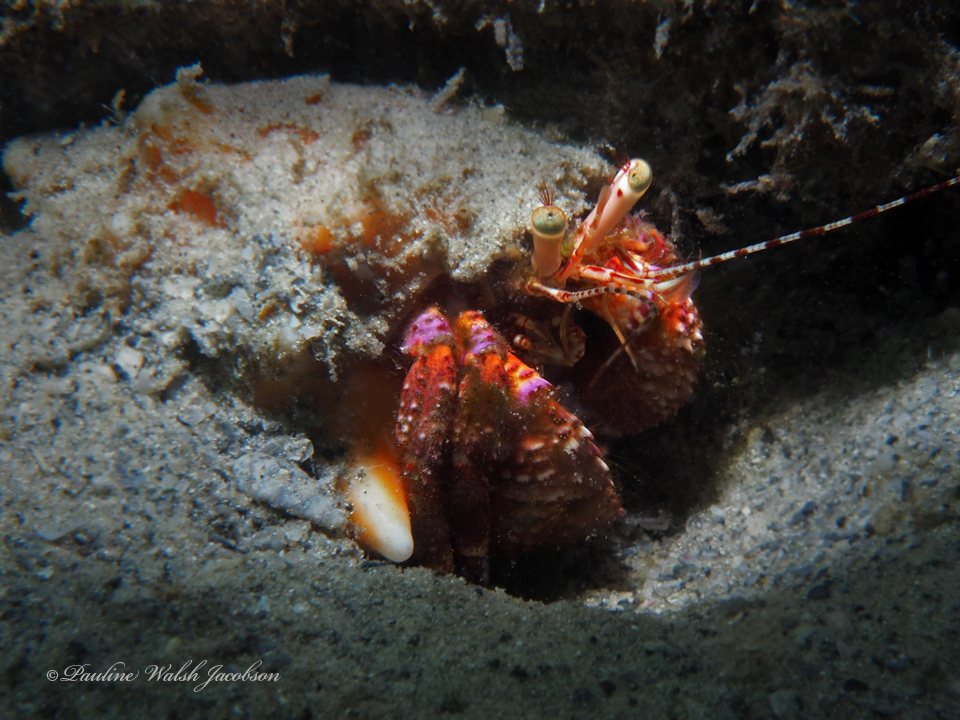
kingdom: Animalia
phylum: Arthropoda
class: Malacostraca
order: Decapoda
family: Diogenidae
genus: Petrochirus
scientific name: Petrochirus diogenes
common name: Giant hermit crab
